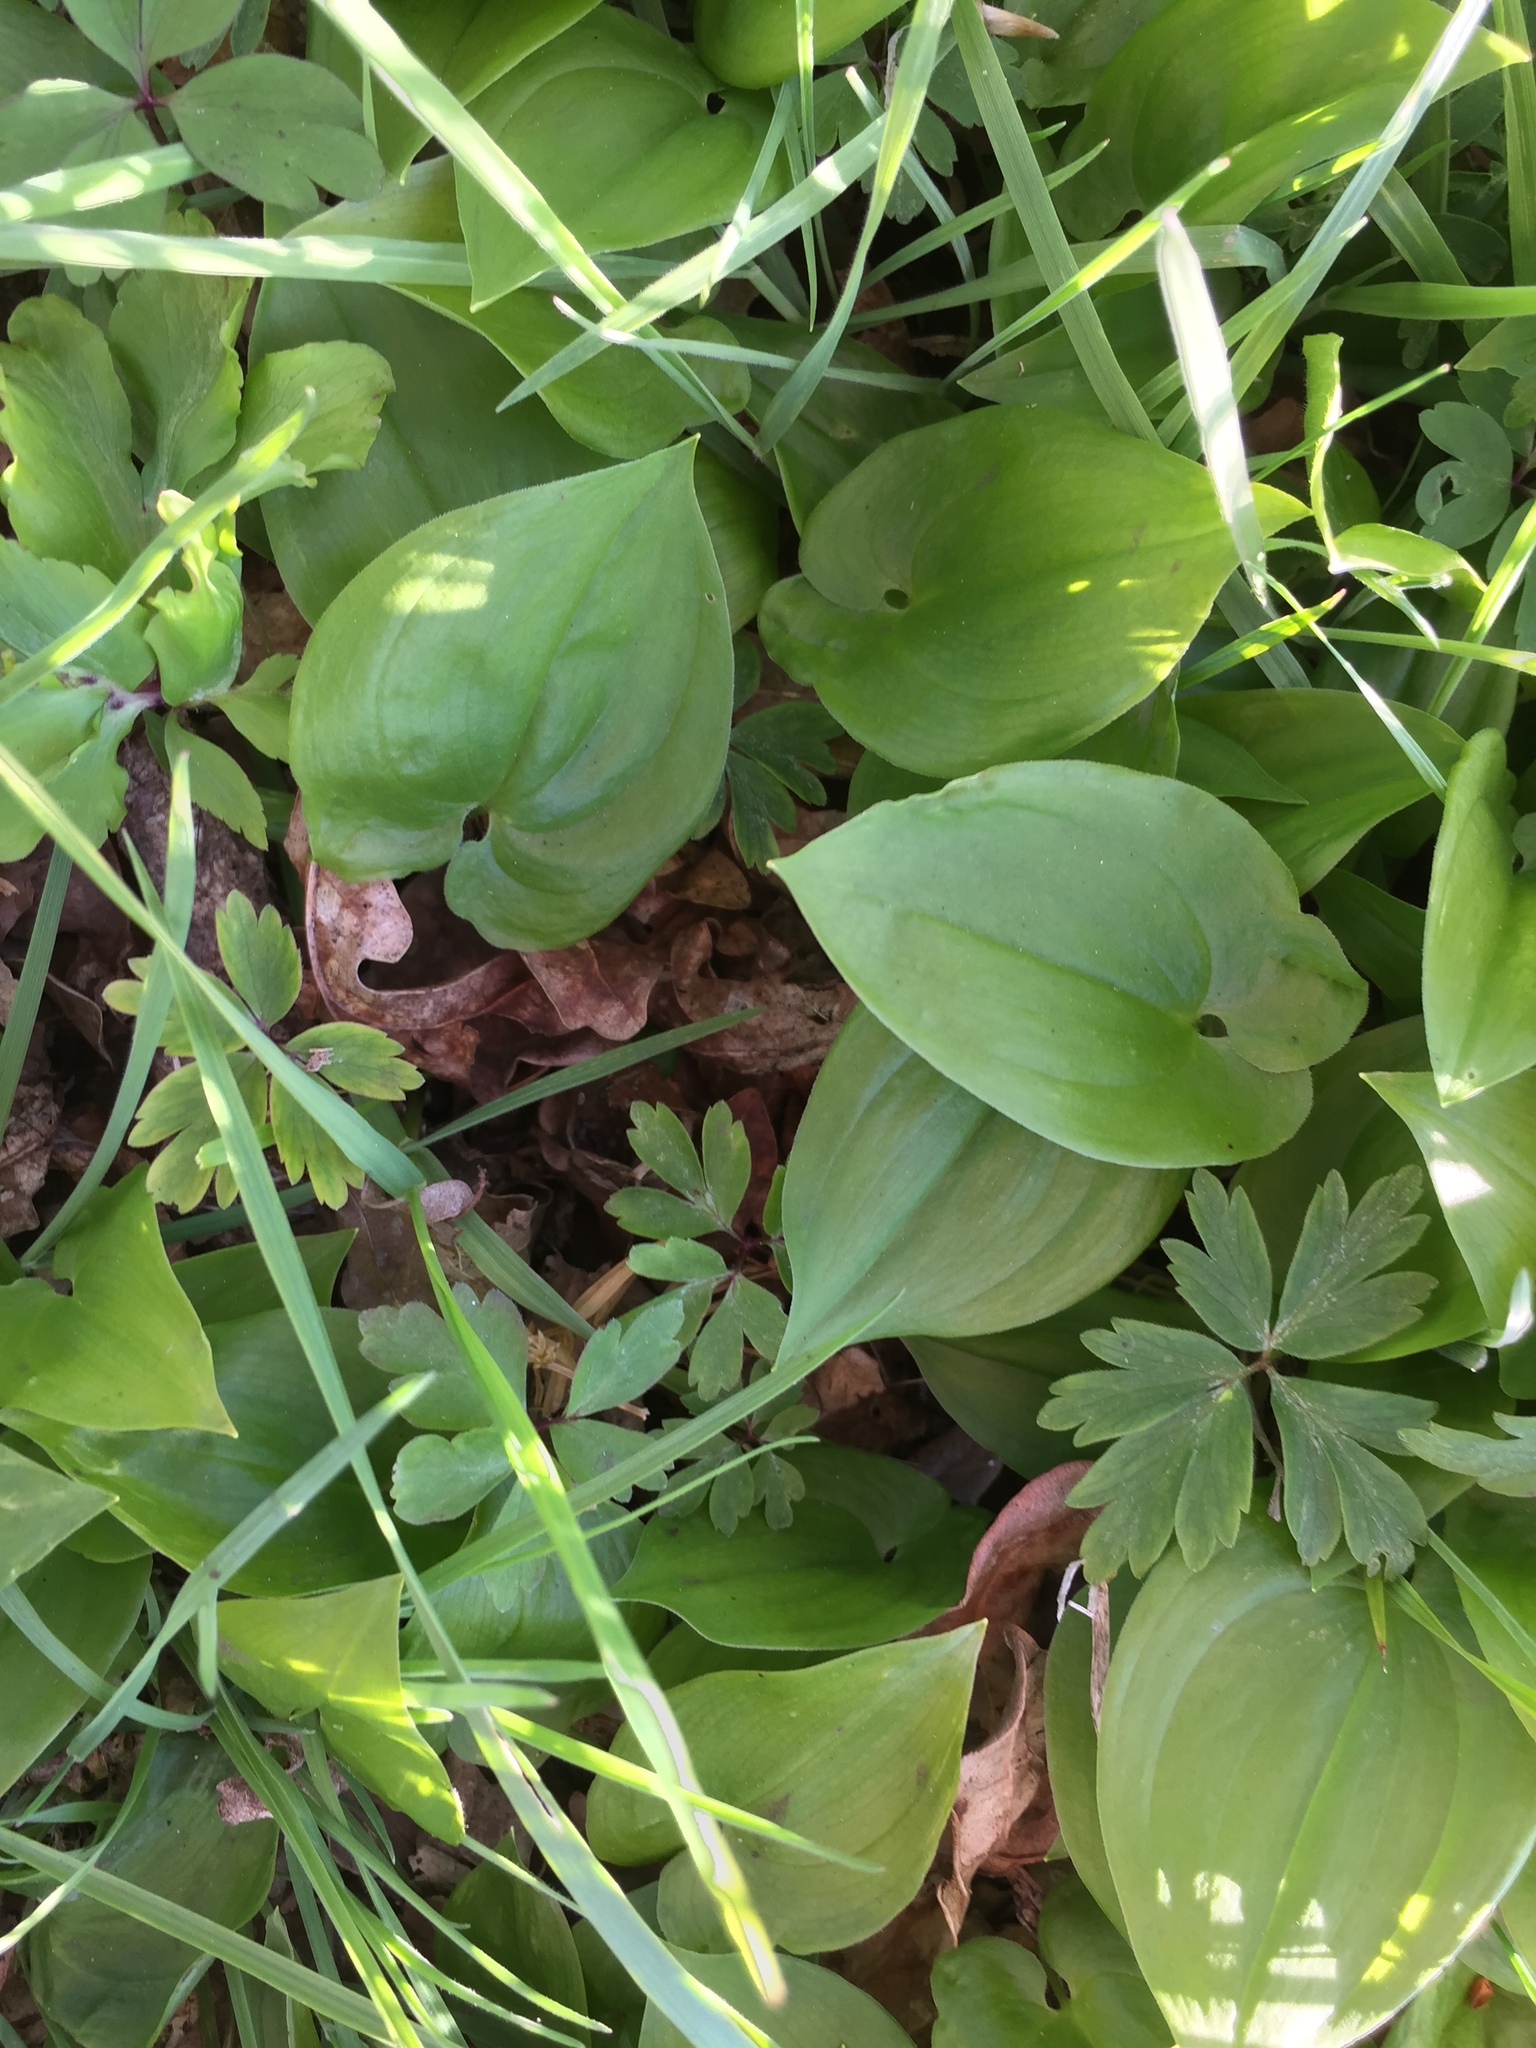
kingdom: Plantae
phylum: Tracheophyta
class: Liliopsida
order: Asparagales
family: Asparagaceae
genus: Maianthemum
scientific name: Maianthemum bifolium
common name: May lily
